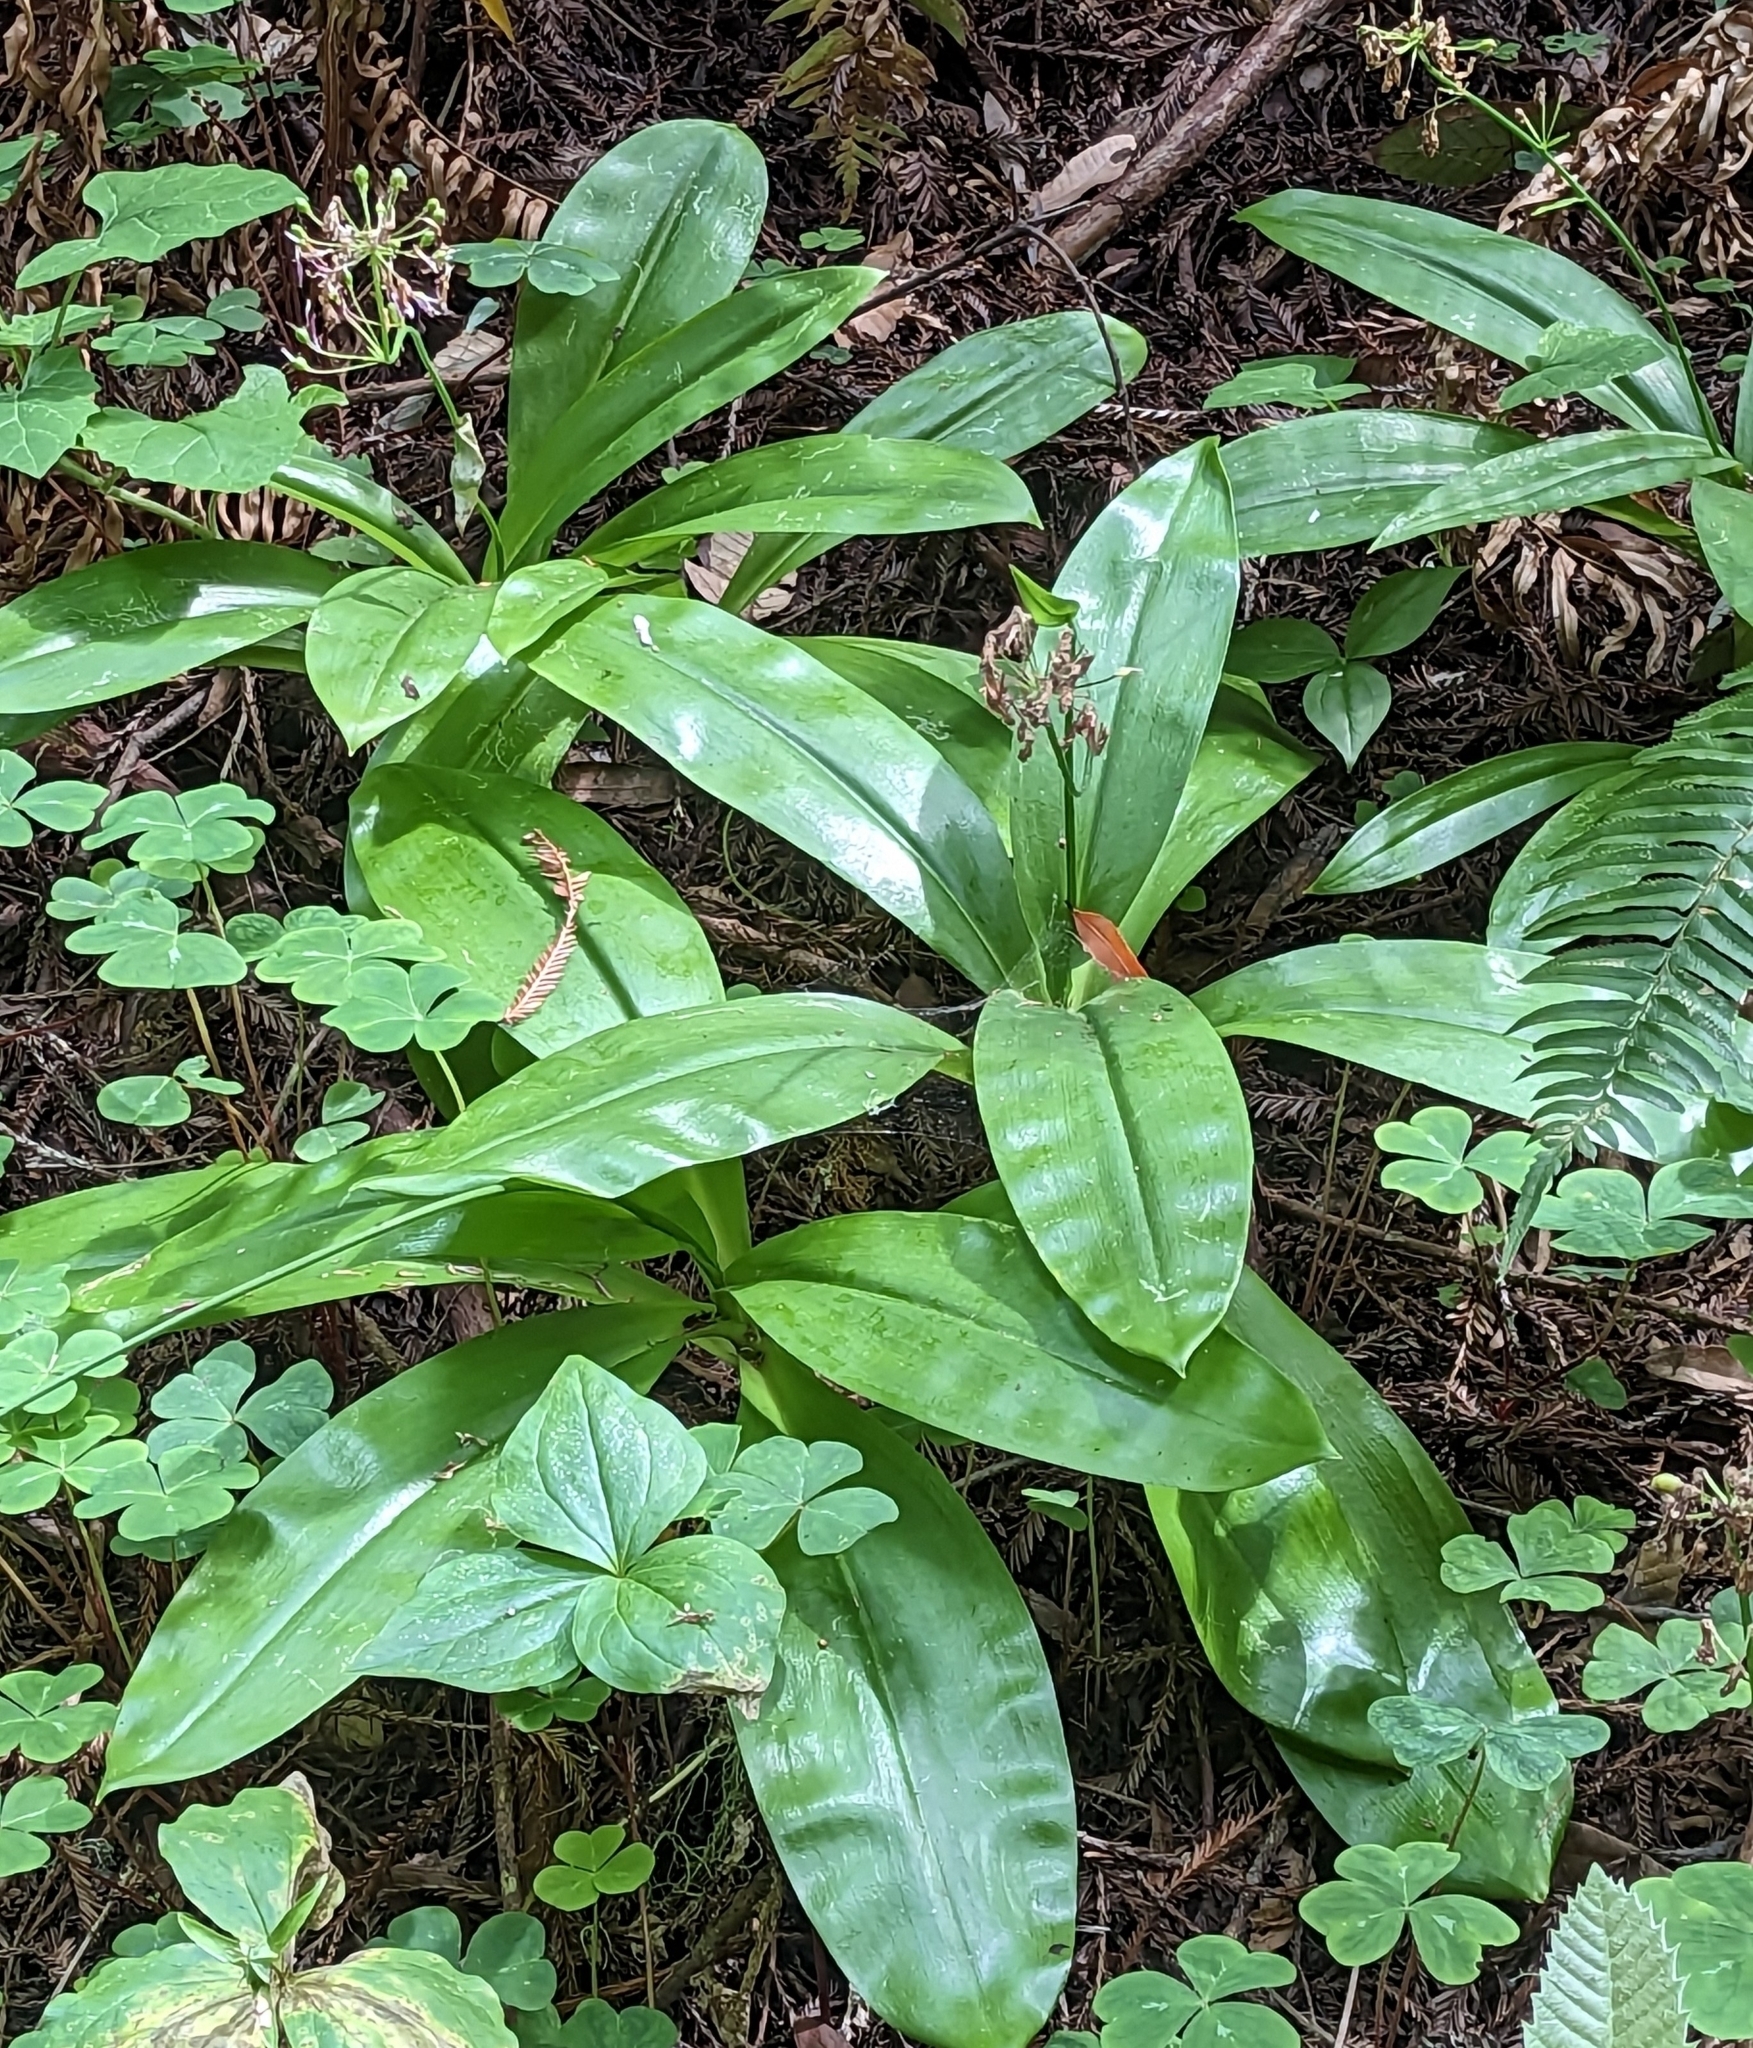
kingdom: Plantae
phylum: Tracheophyta
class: Liliopsida
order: Liliales
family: Liliaceae
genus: Clintonia
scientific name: Clintonia andrewsiana
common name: Red clintonia
